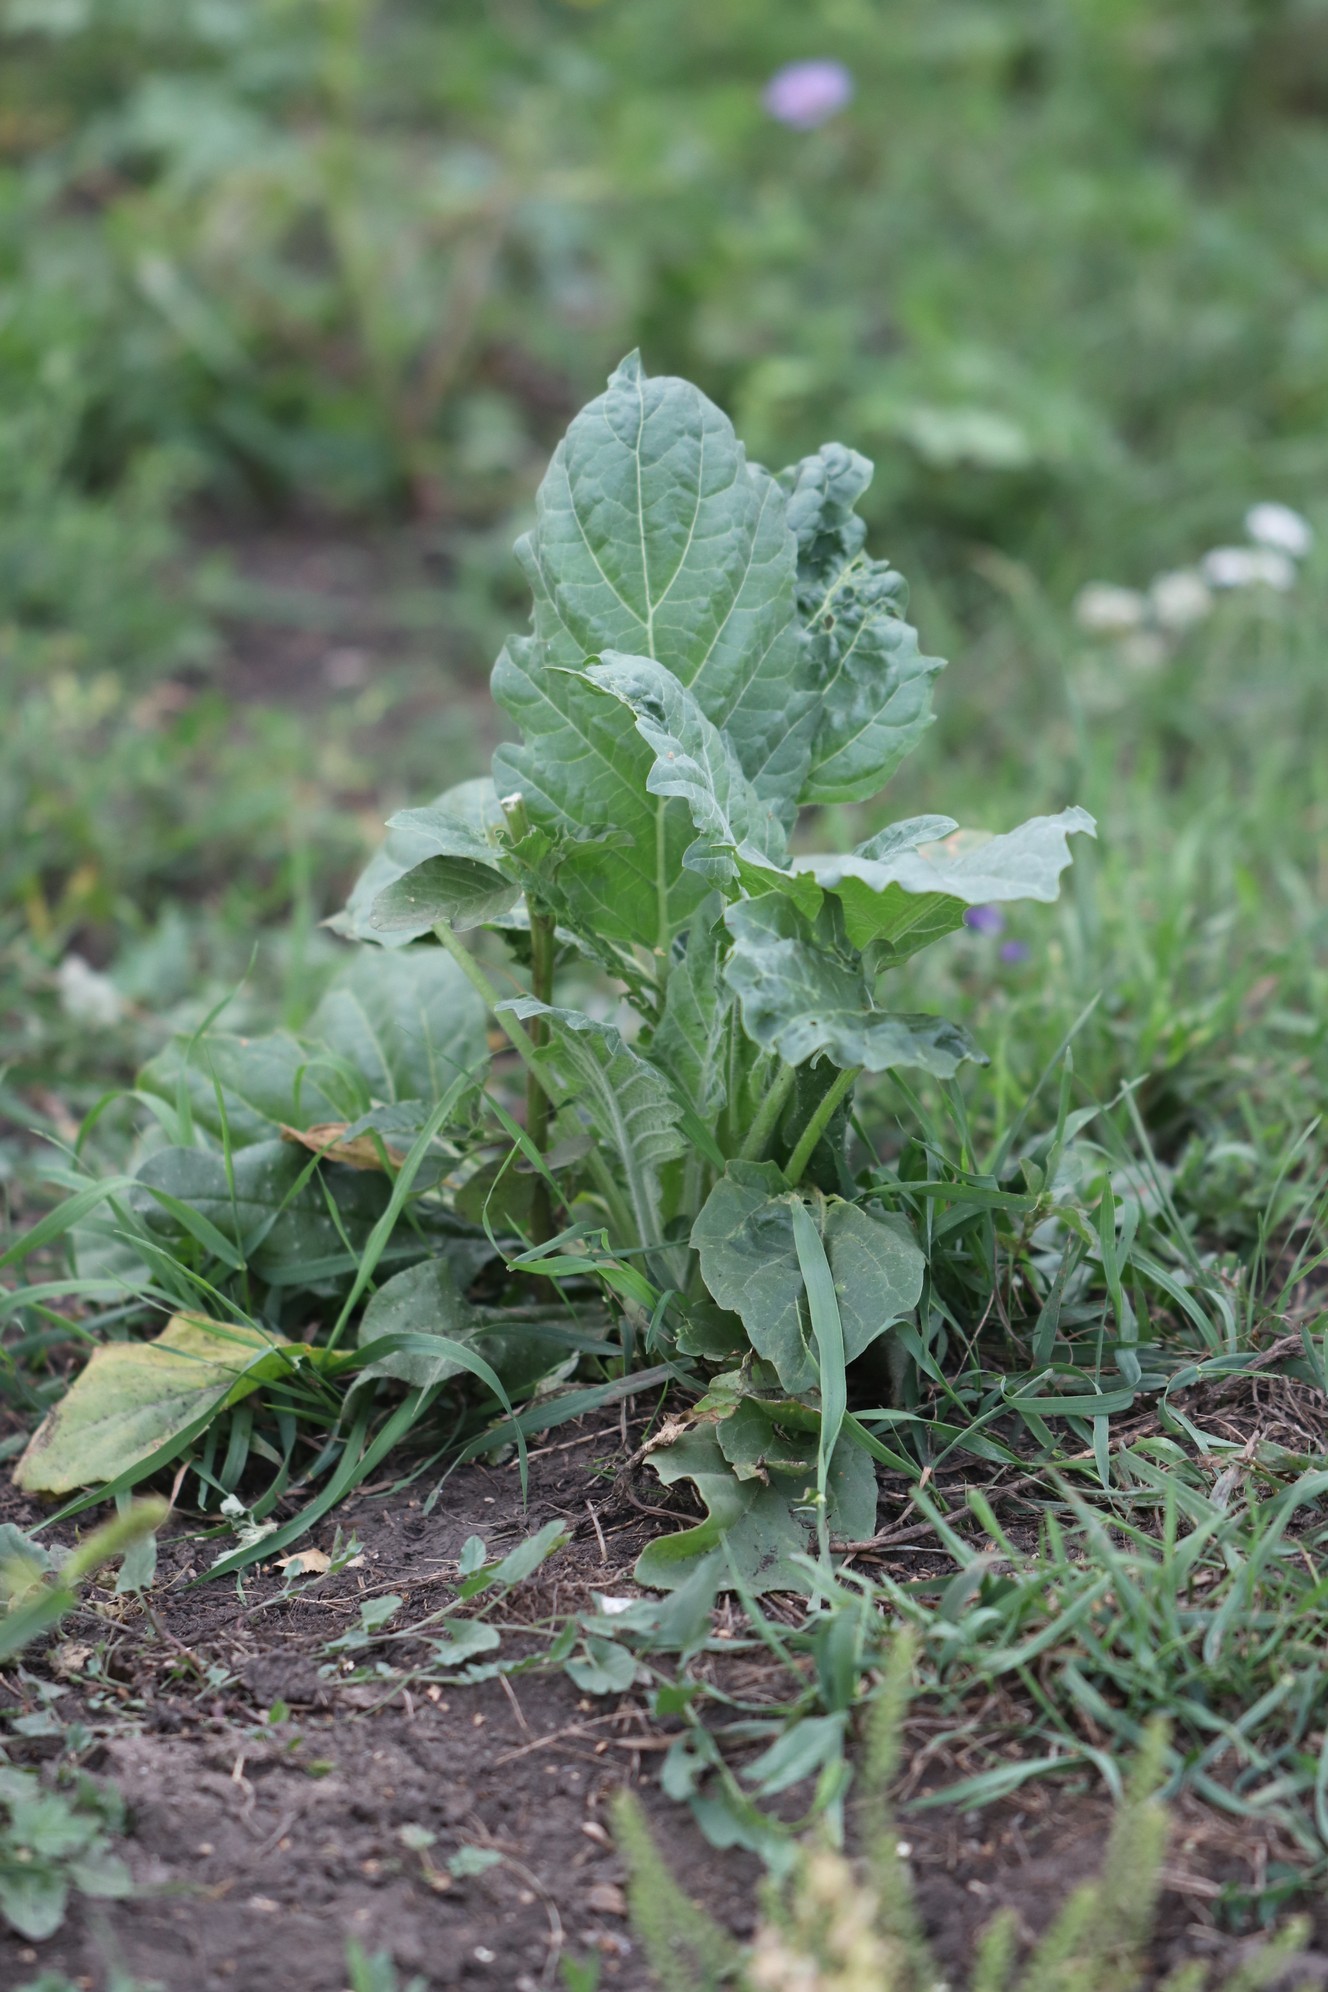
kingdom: Plantae
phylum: Tracheophyta
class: Magnoliopsida
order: Solanales
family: Solanaceae
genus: Hyoscyamus
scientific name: Hyoscyamus niger
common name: Henbane
